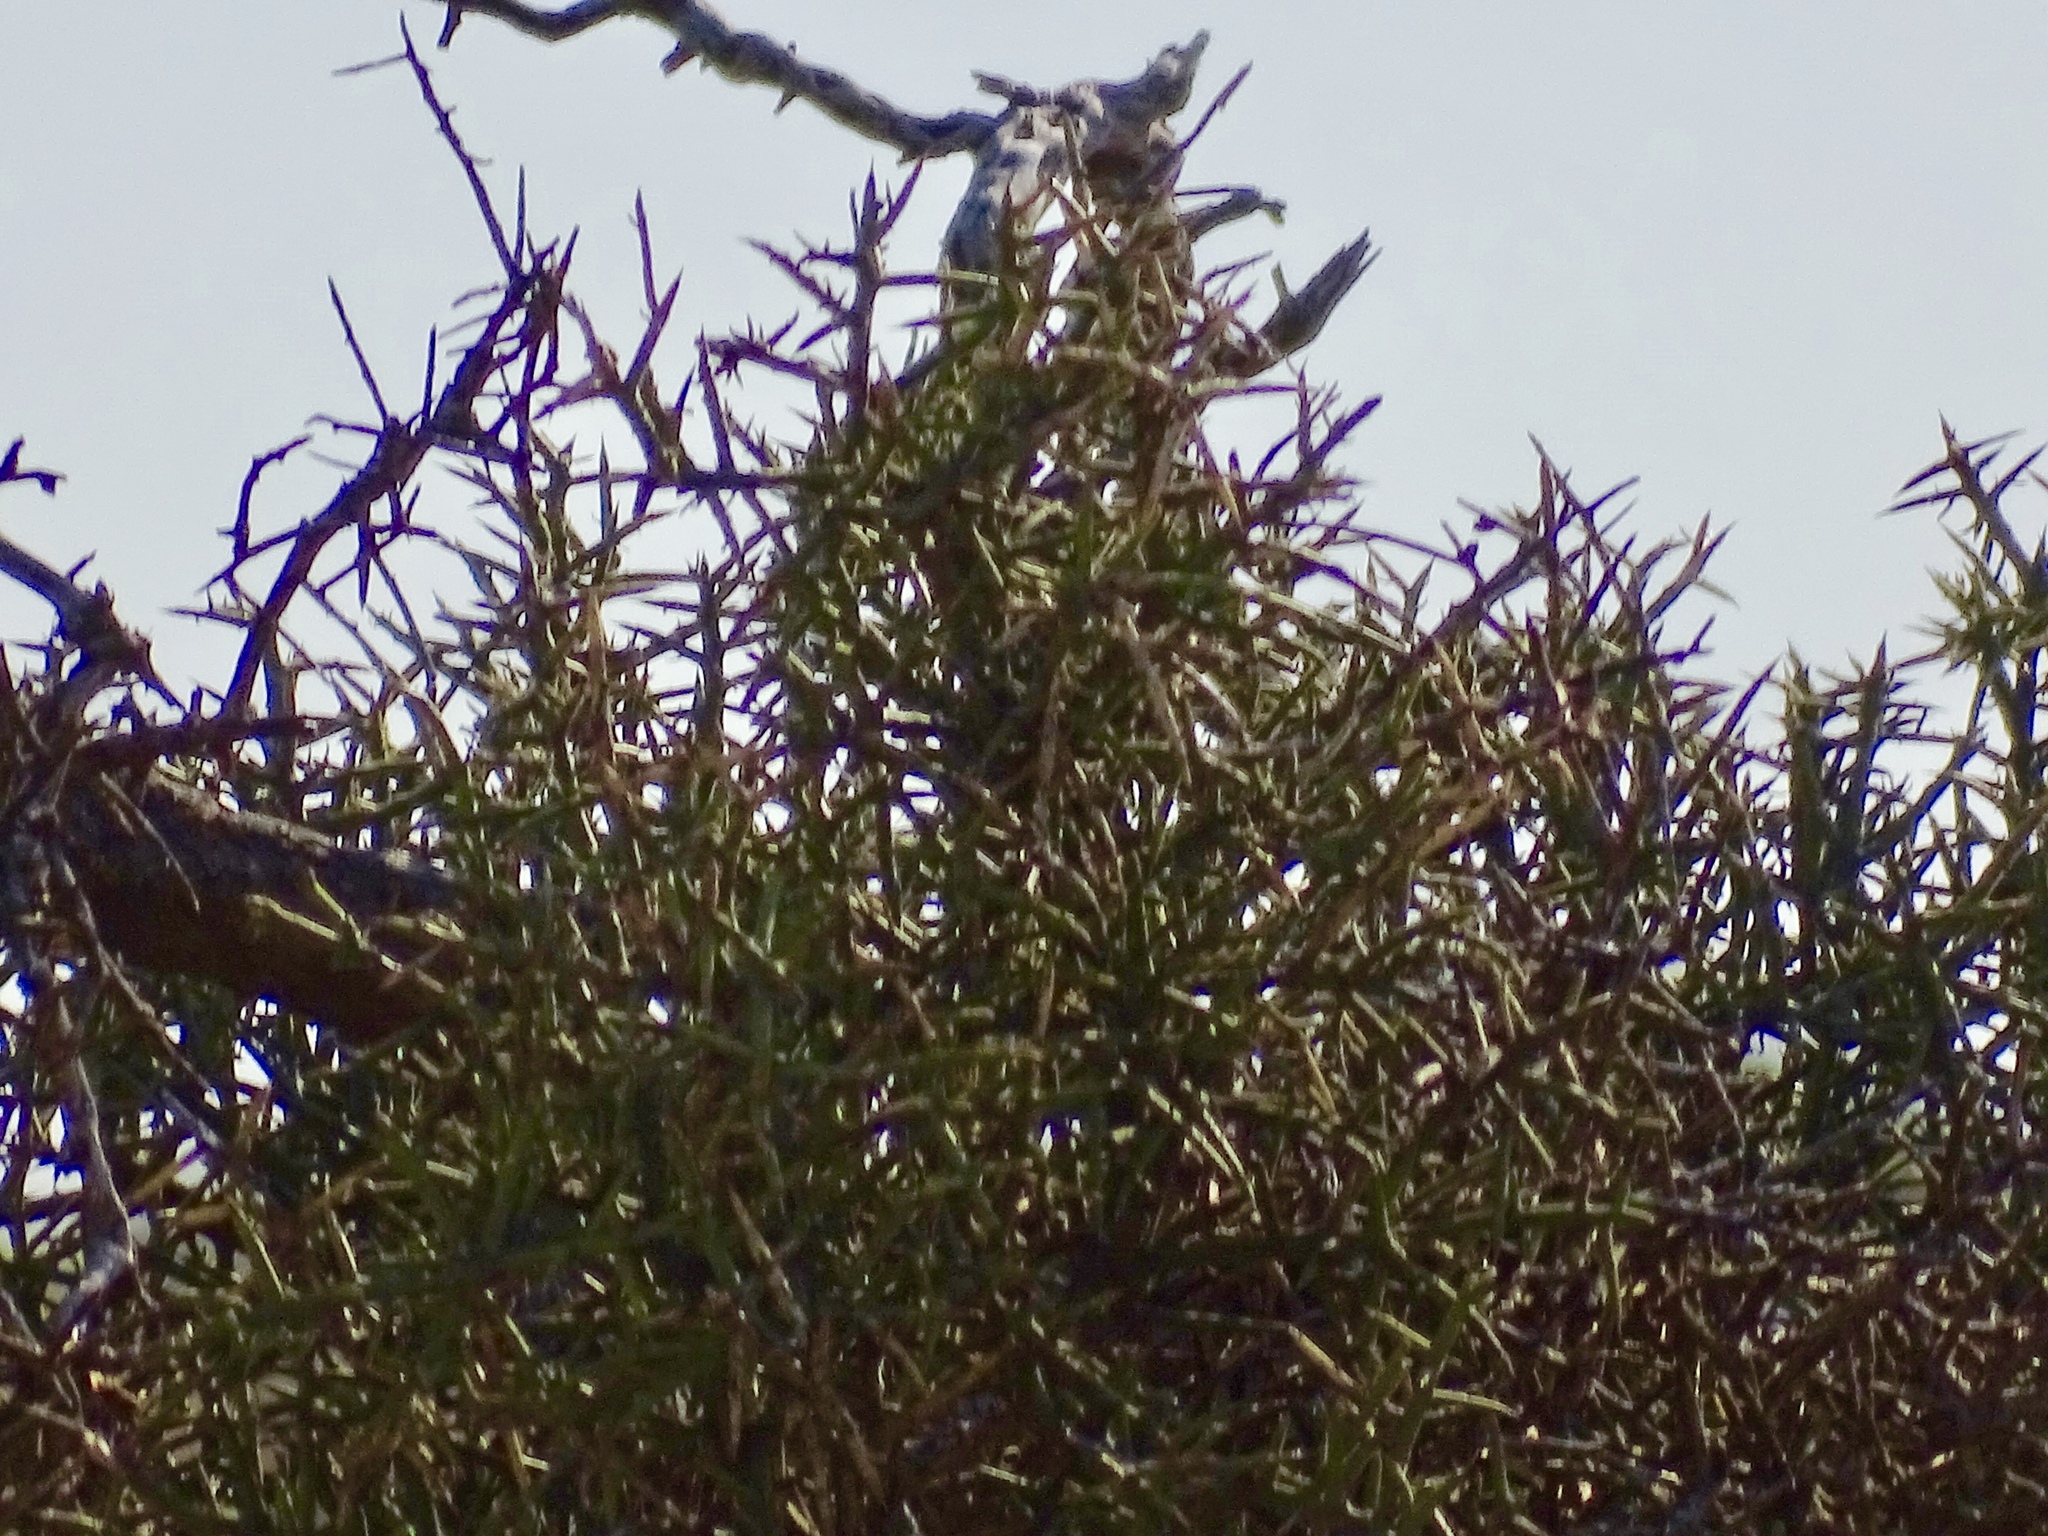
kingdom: Plantae
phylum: Tracheophyta
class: Magnoliopsida
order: Brassicales
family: Koeberliniaceae
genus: Koeberlinia
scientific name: Koeberlinia spinosa
